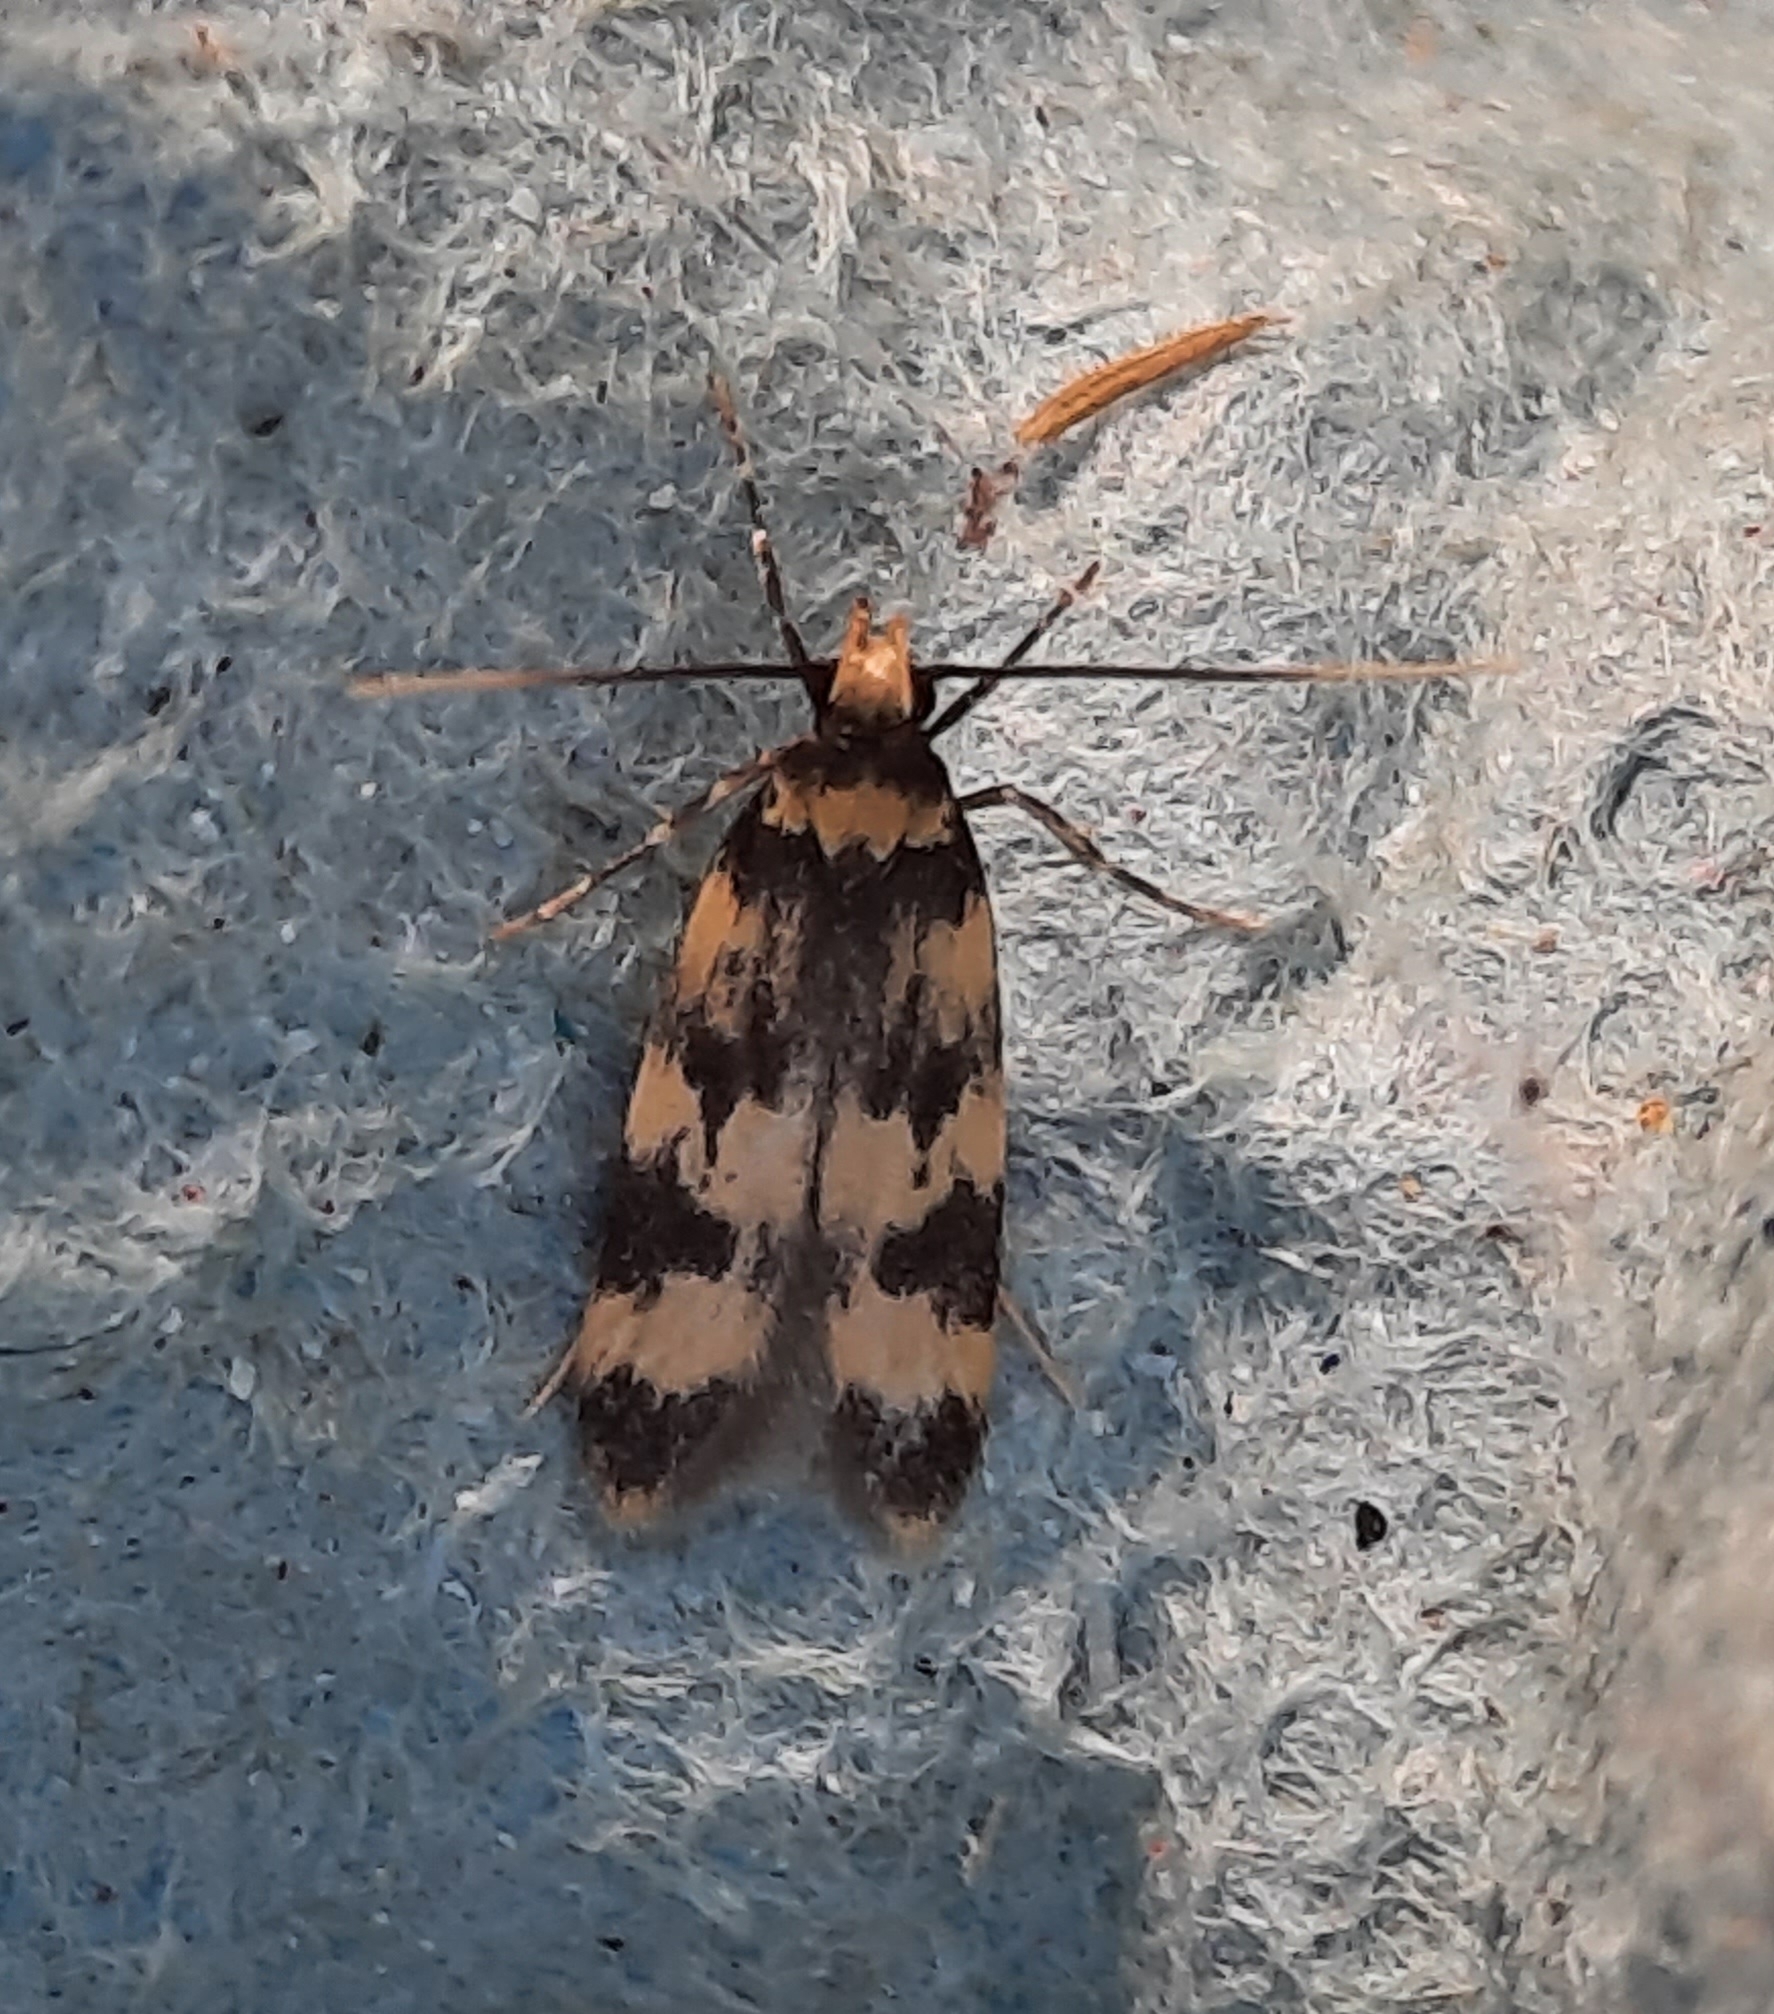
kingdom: Animalia
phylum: Arthropoda
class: Insecta
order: Lepidoptera
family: Autostichidae
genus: Oegoconia
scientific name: Oegoconia
